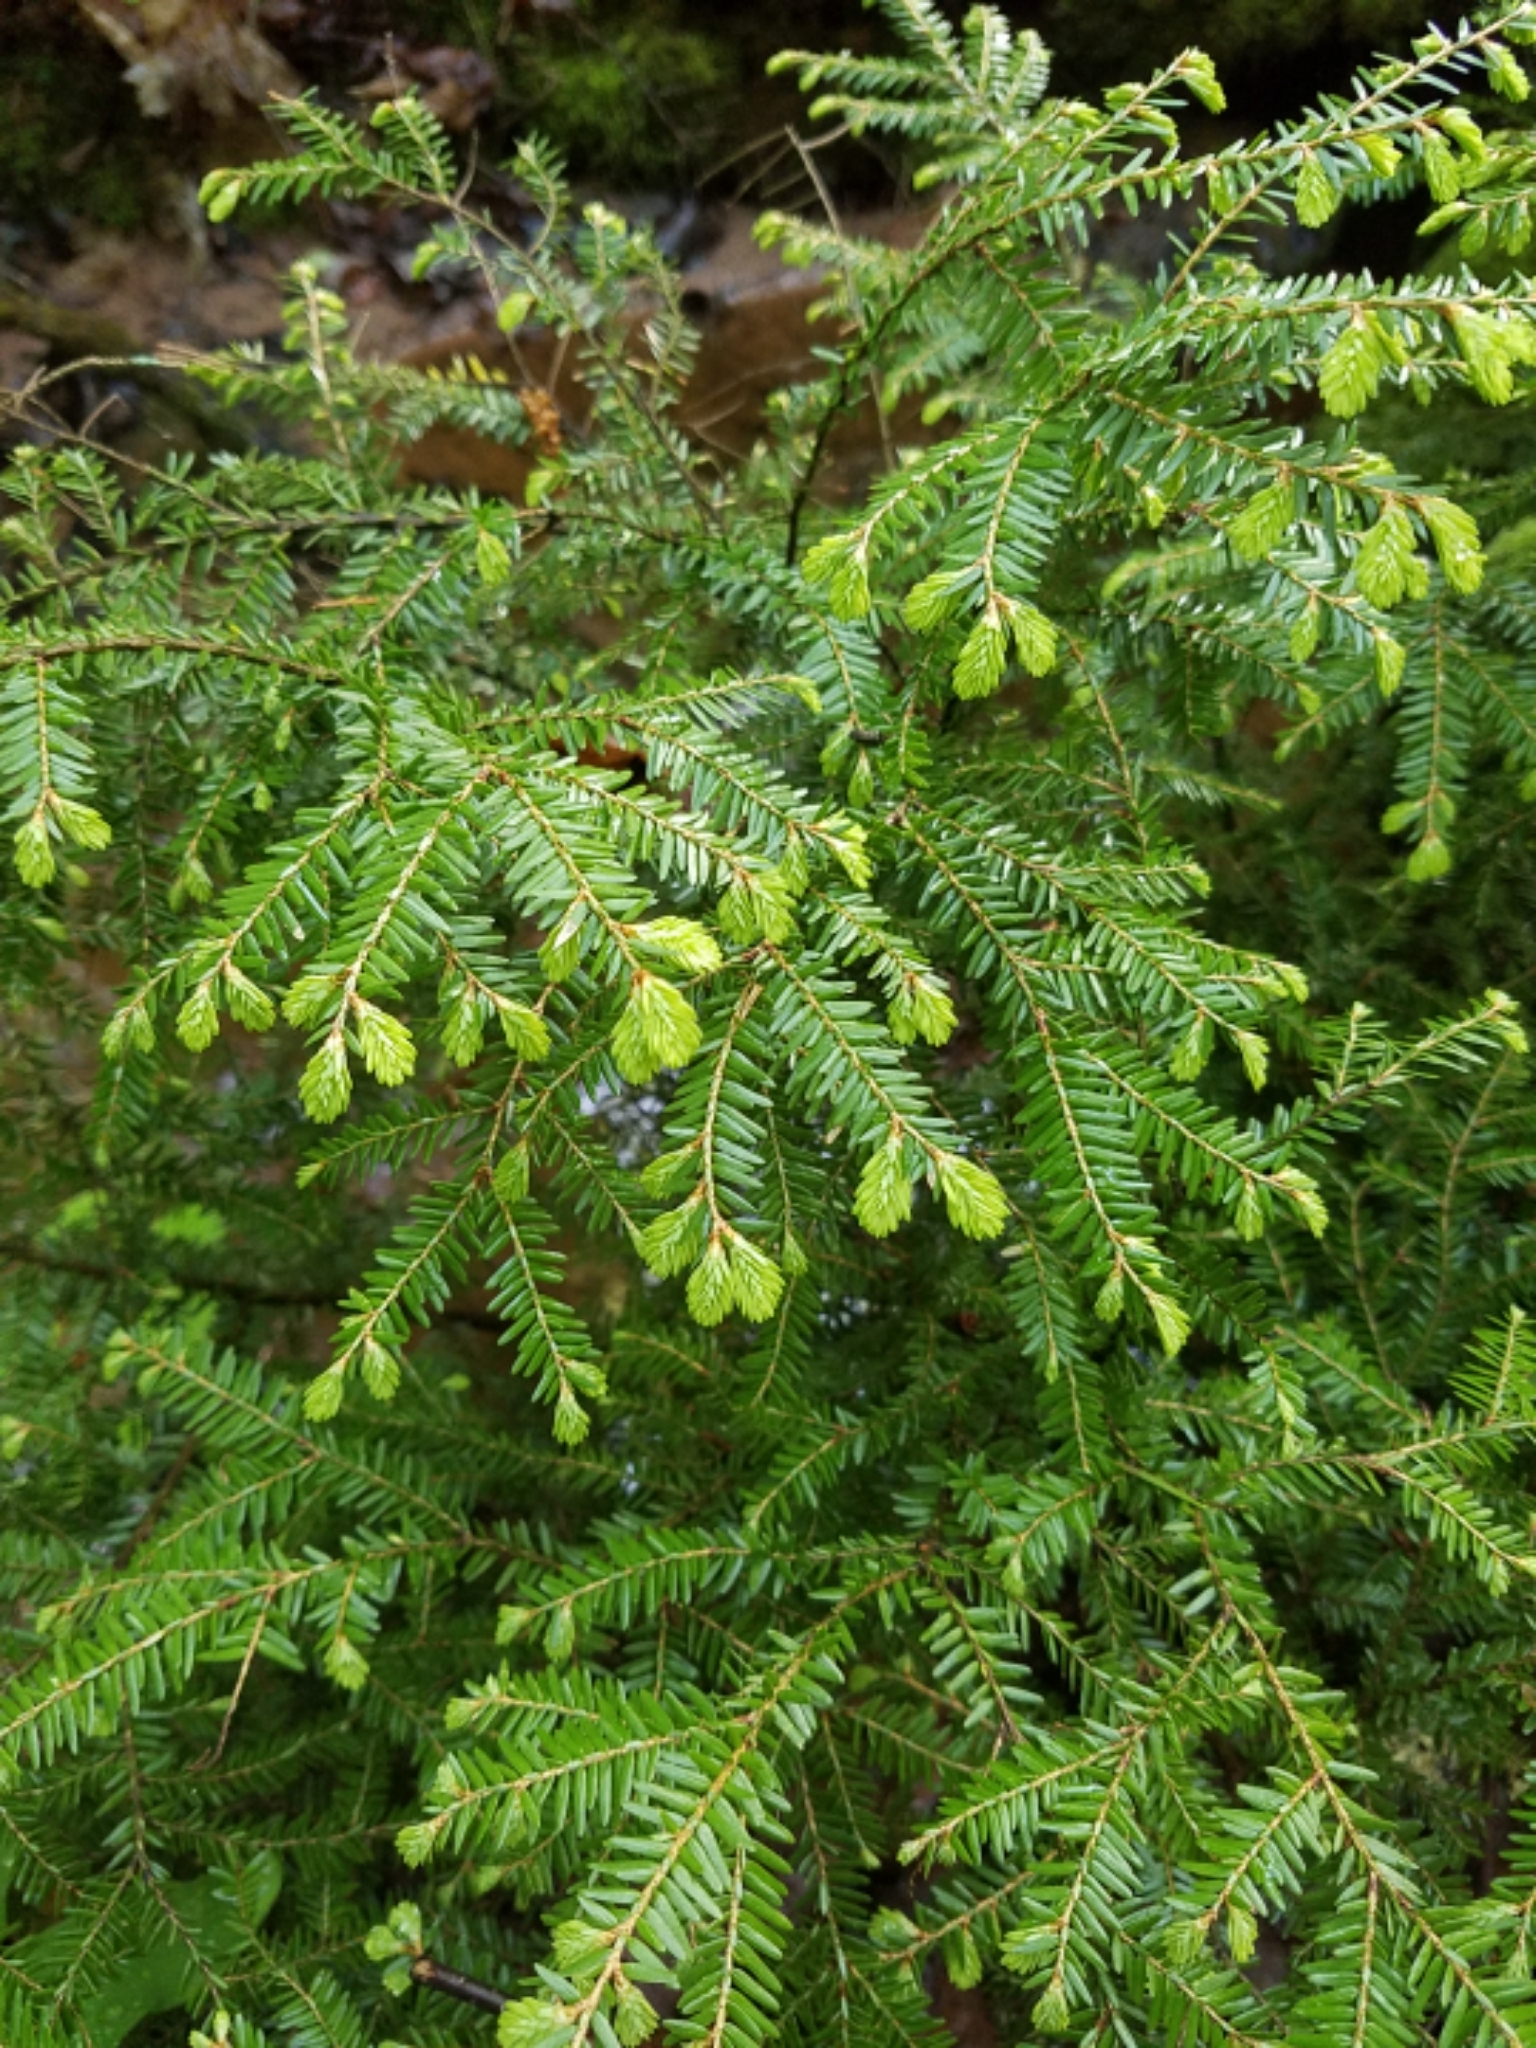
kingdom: Plantae
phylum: Tracheophyta
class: Pinopsida
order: Pinales
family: Pinaceae
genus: Tsuga
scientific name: Tsuga canadensis
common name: Eastern hemlock
